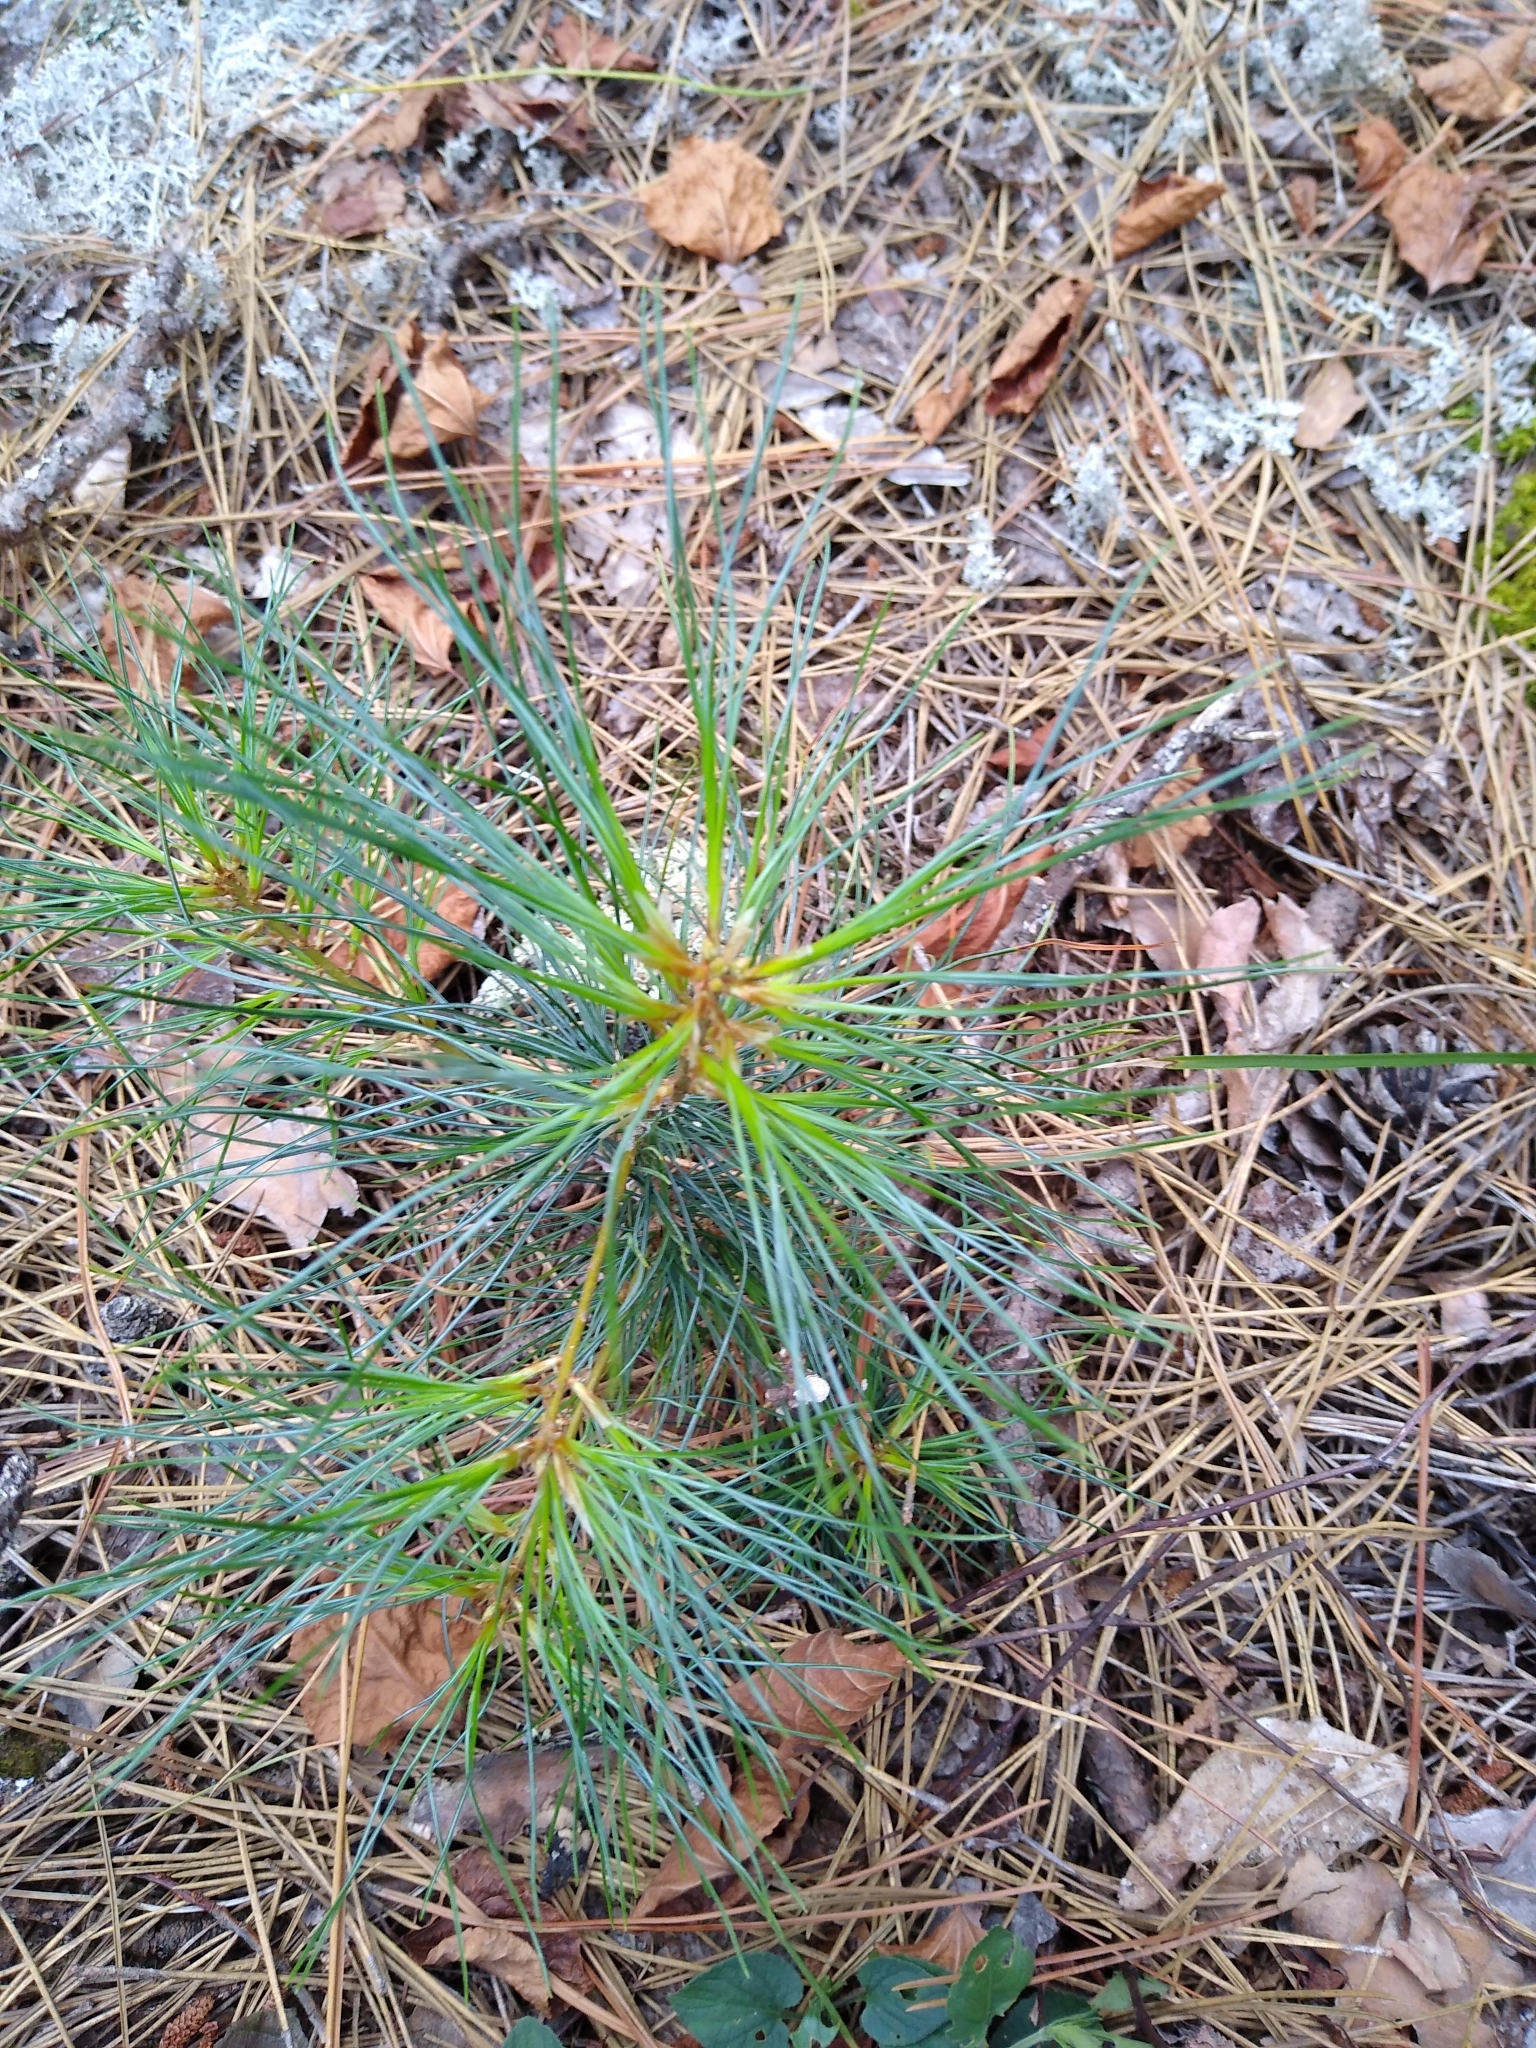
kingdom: Plantae
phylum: Tracheophyta
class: Pinopsida
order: Pinales
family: Pinaceae
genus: Pinus
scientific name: Pinus strobus
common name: Weymouth pine
